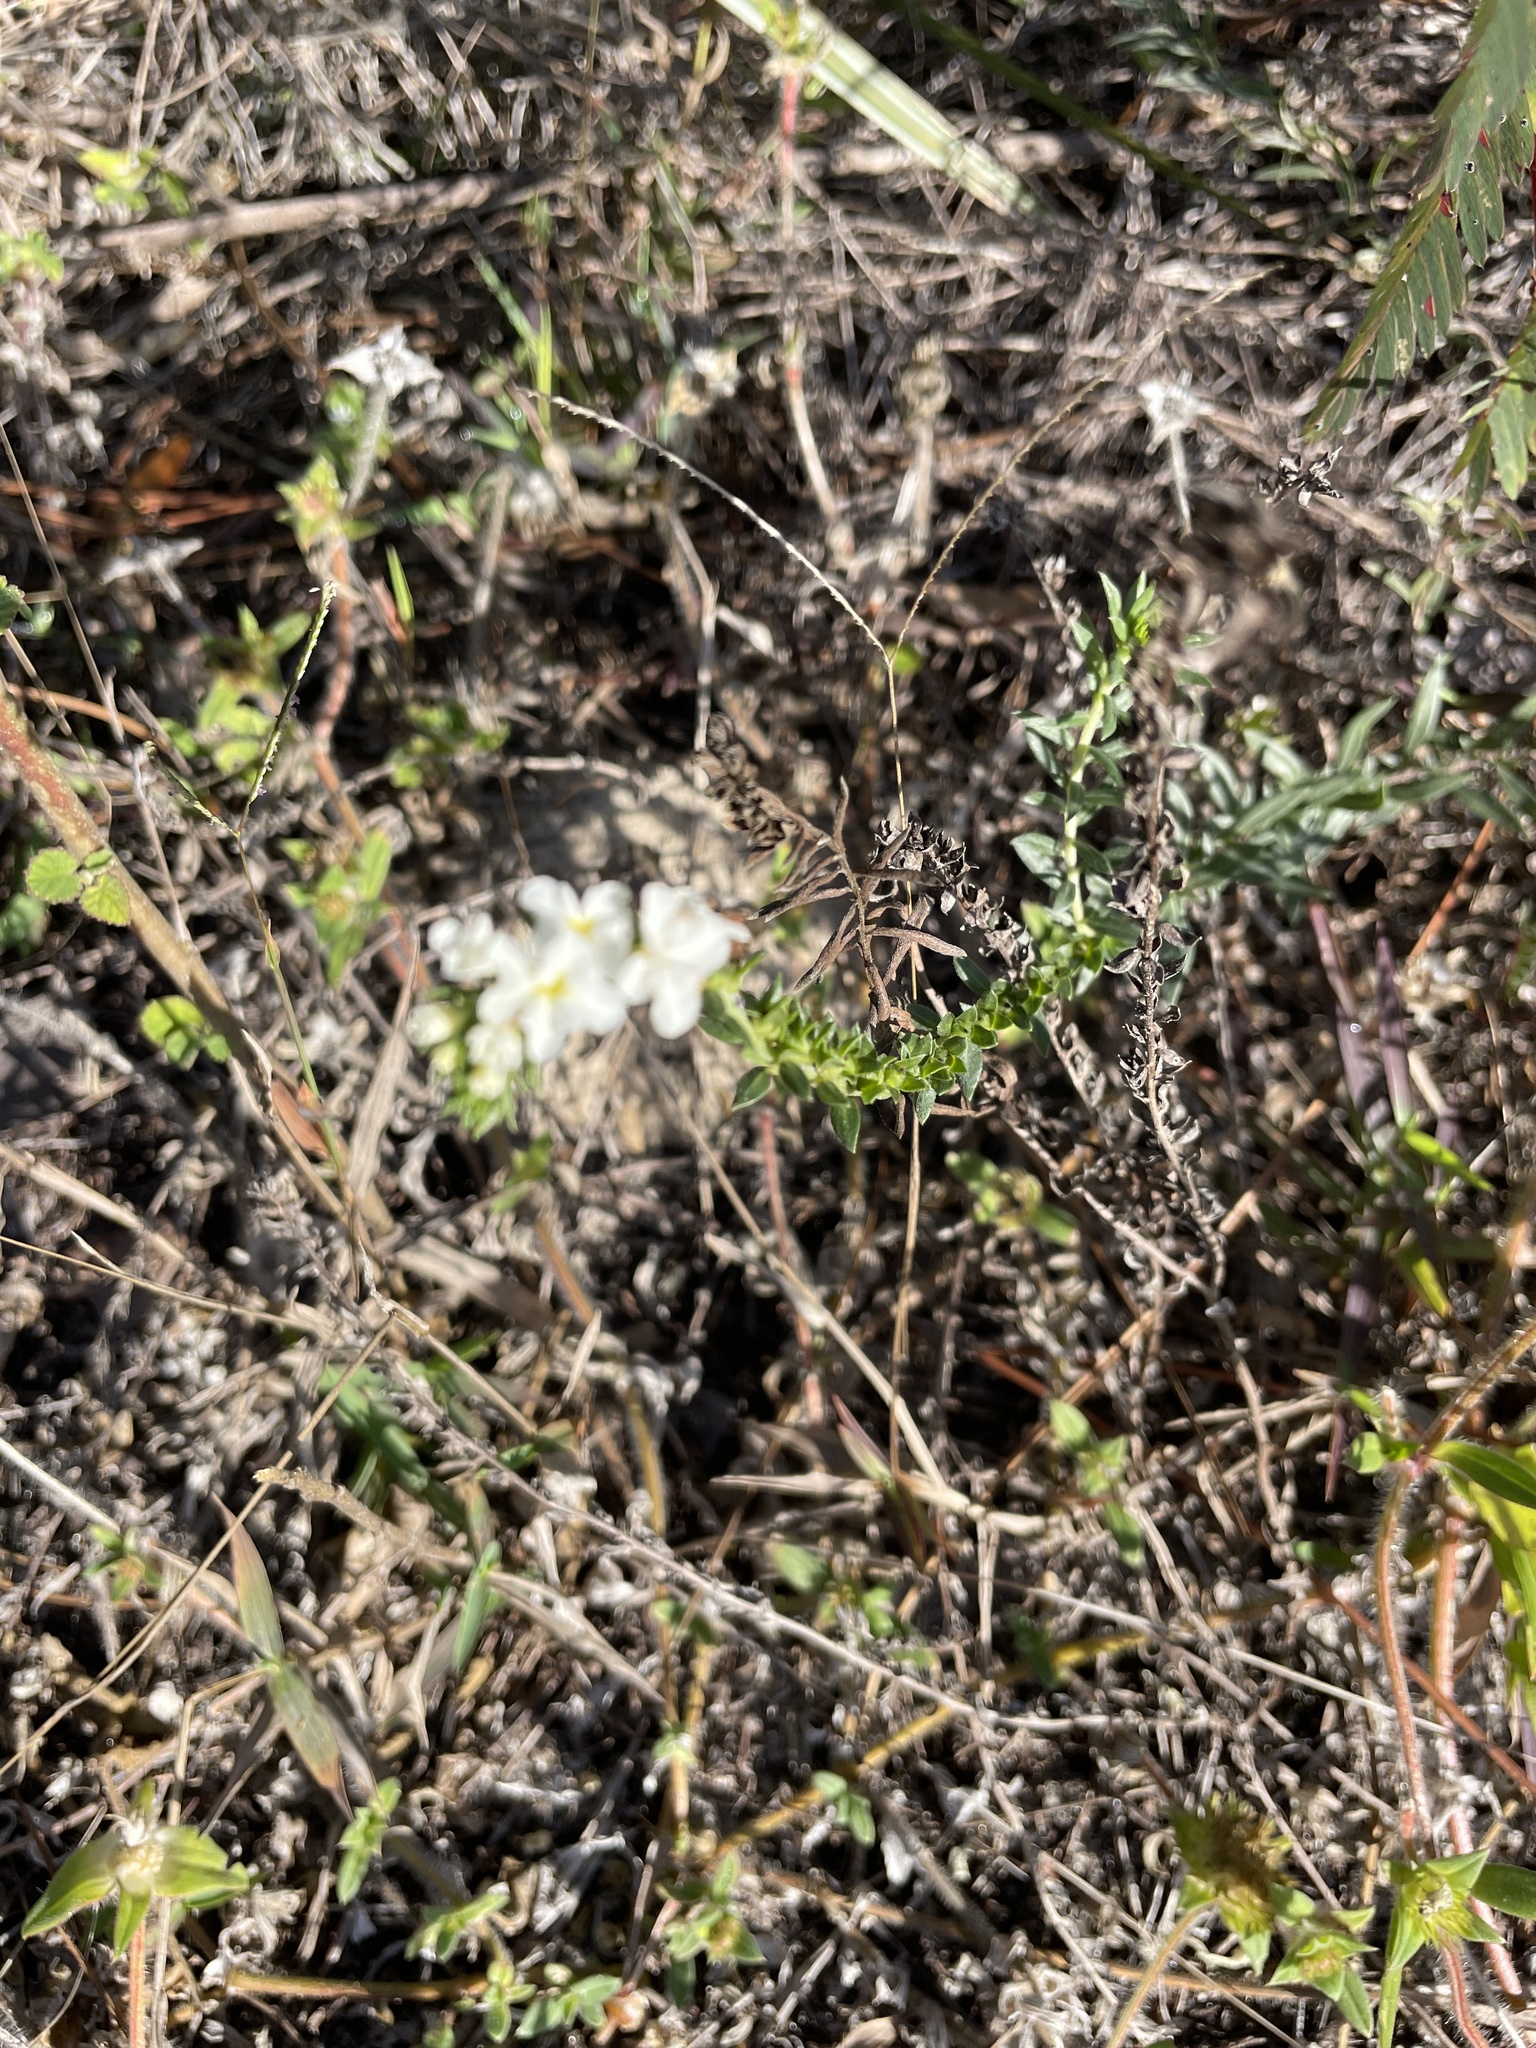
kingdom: Plantae
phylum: Tracheophyta
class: Magnoliopsida
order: Boraginales
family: Heliotropiaceae
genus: Euploca
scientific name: Euploca polyphylla
